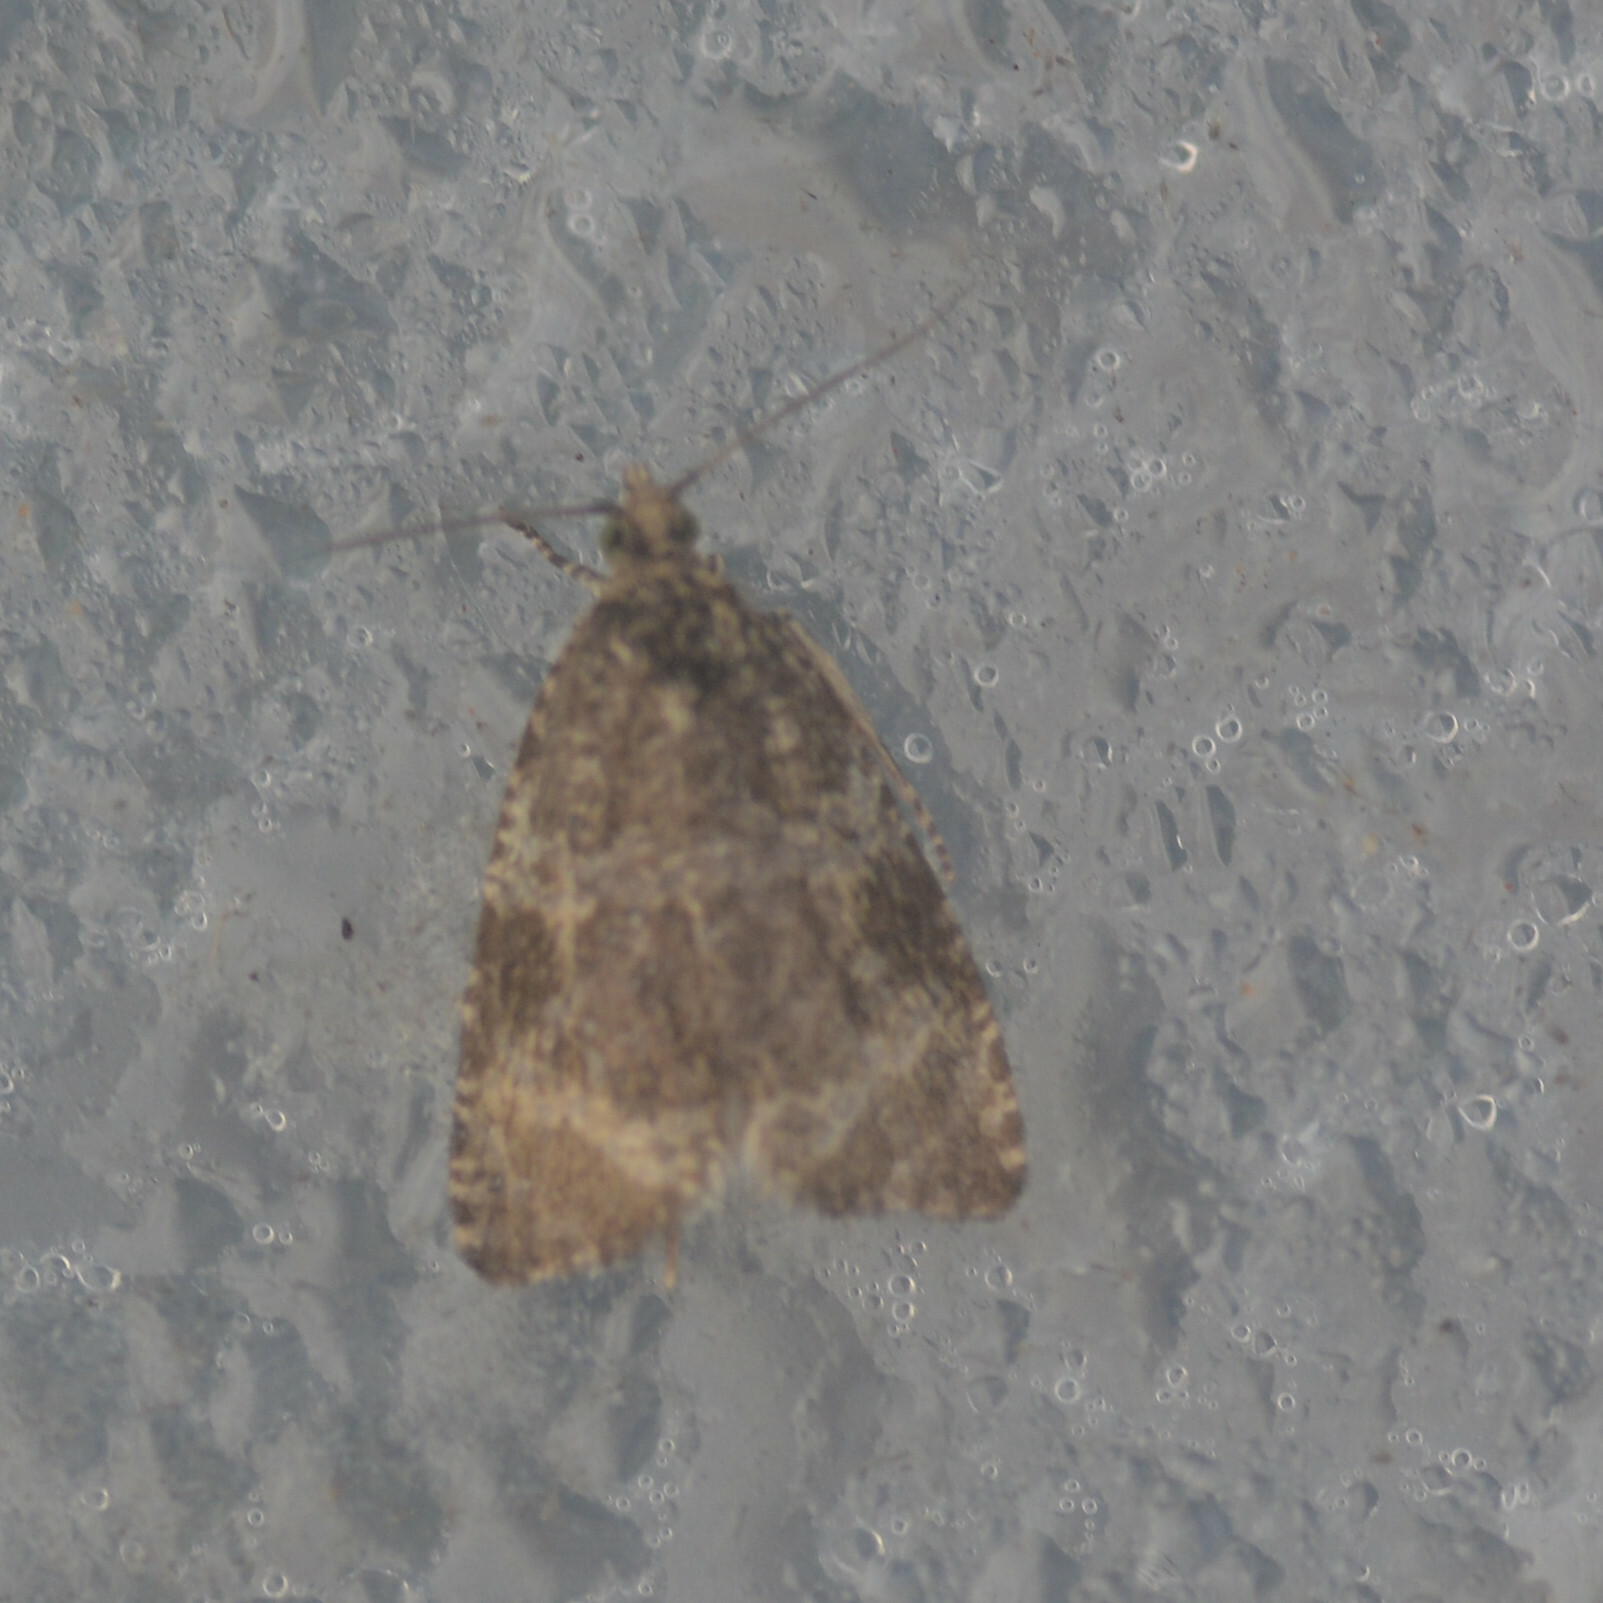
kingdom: Animalia
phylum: Arthropoda
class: Insecta
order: Lepidoptera
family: Tortricidae
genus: Syricoris
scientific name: Syricoris lacunana
